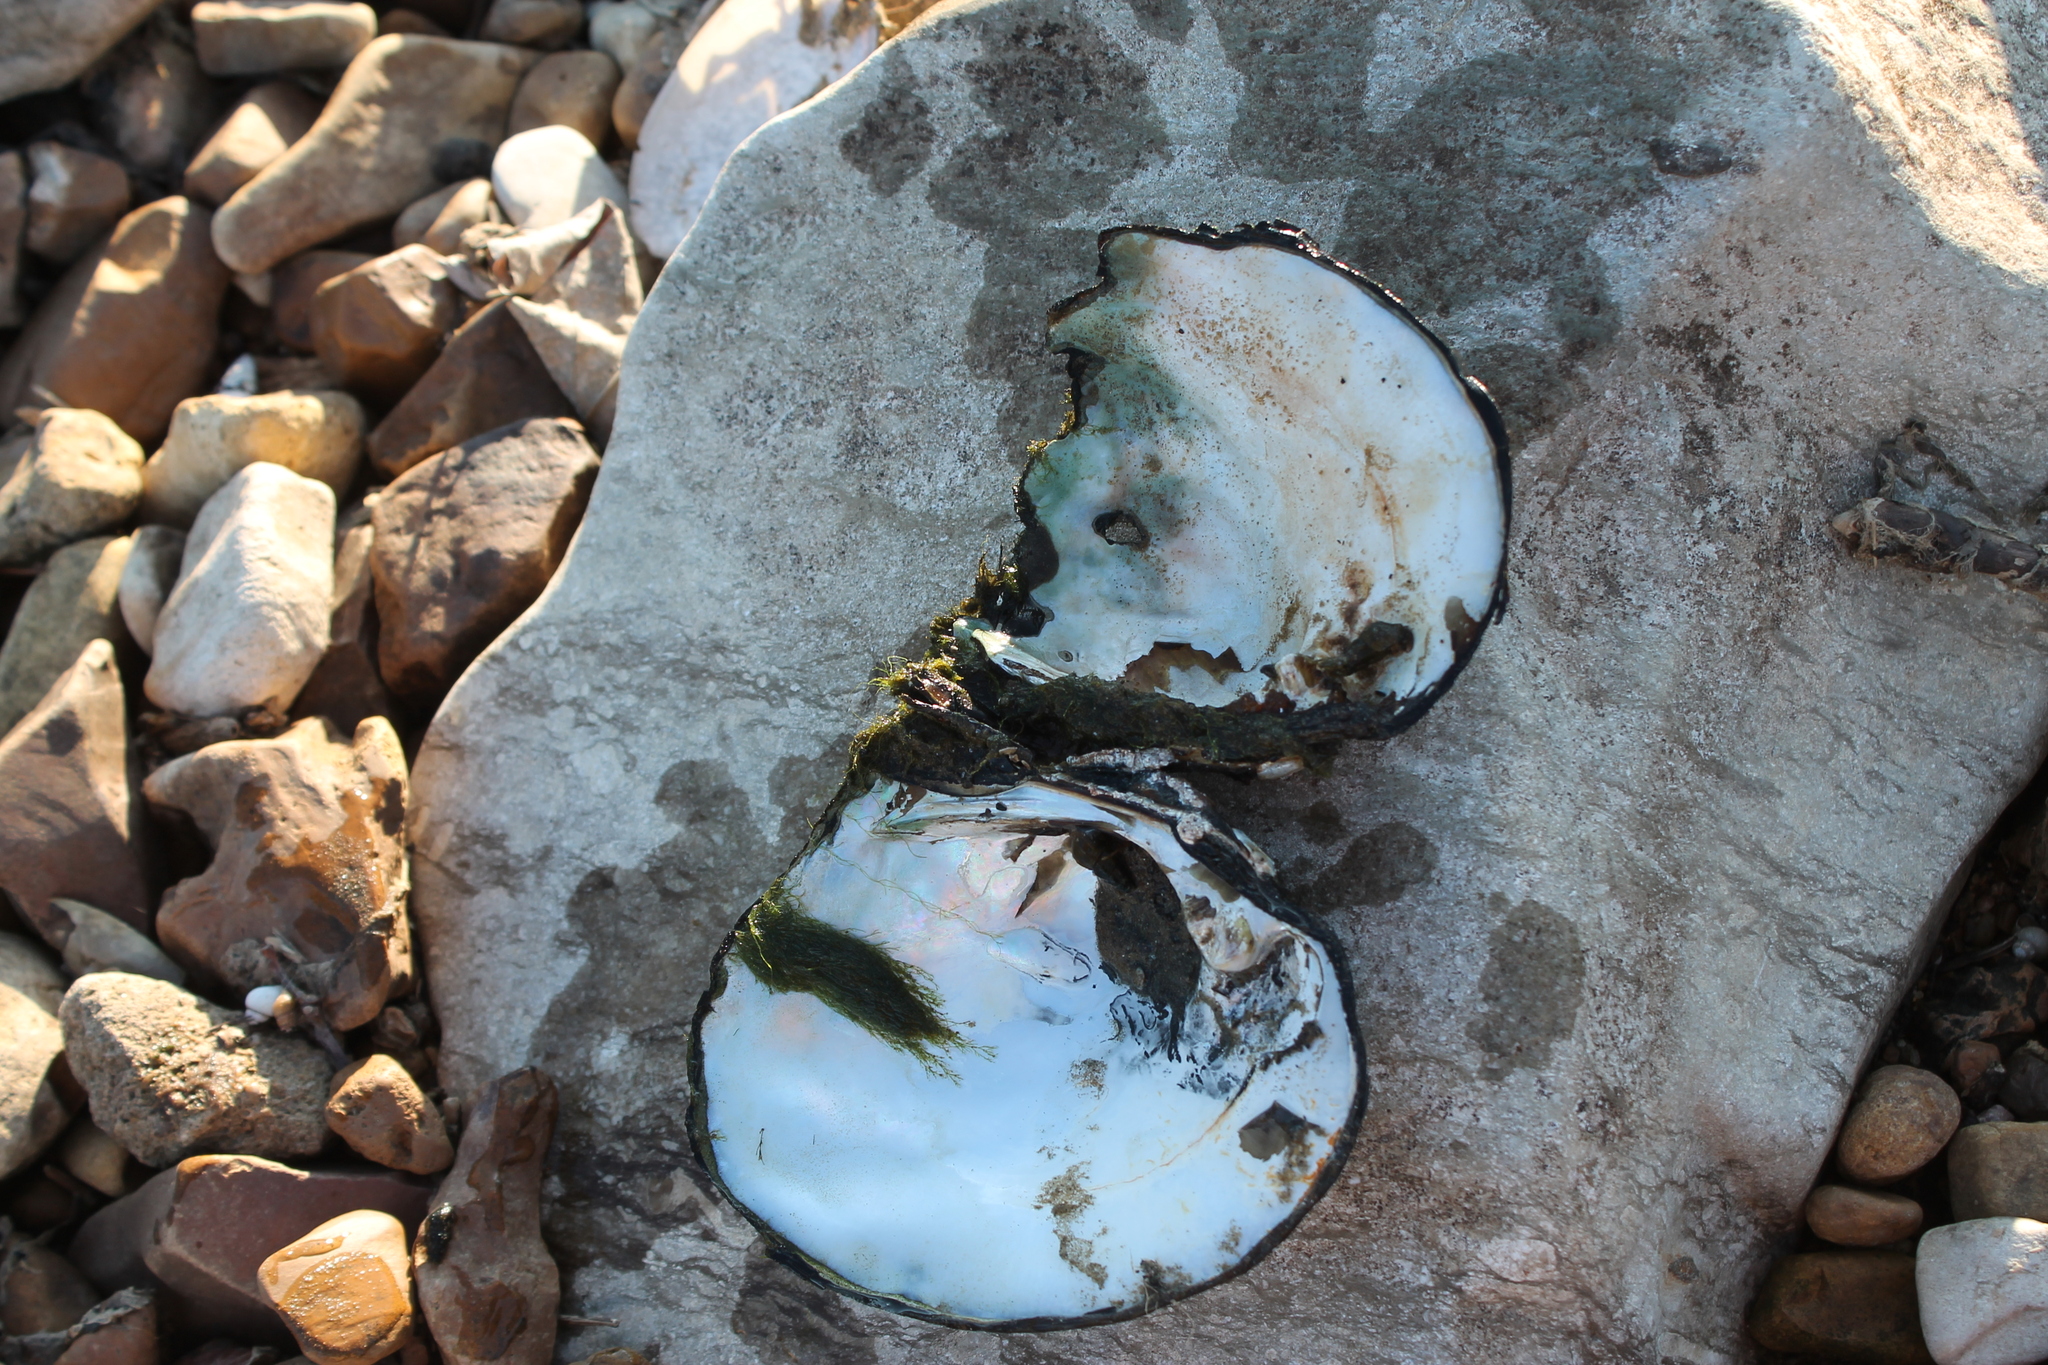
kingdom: Animalia
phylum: Mollusca
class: Bivalvia
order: Unionida
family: Unionidae
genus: Megalonaias
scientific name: Megalonaias nervosa
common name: Washboard
